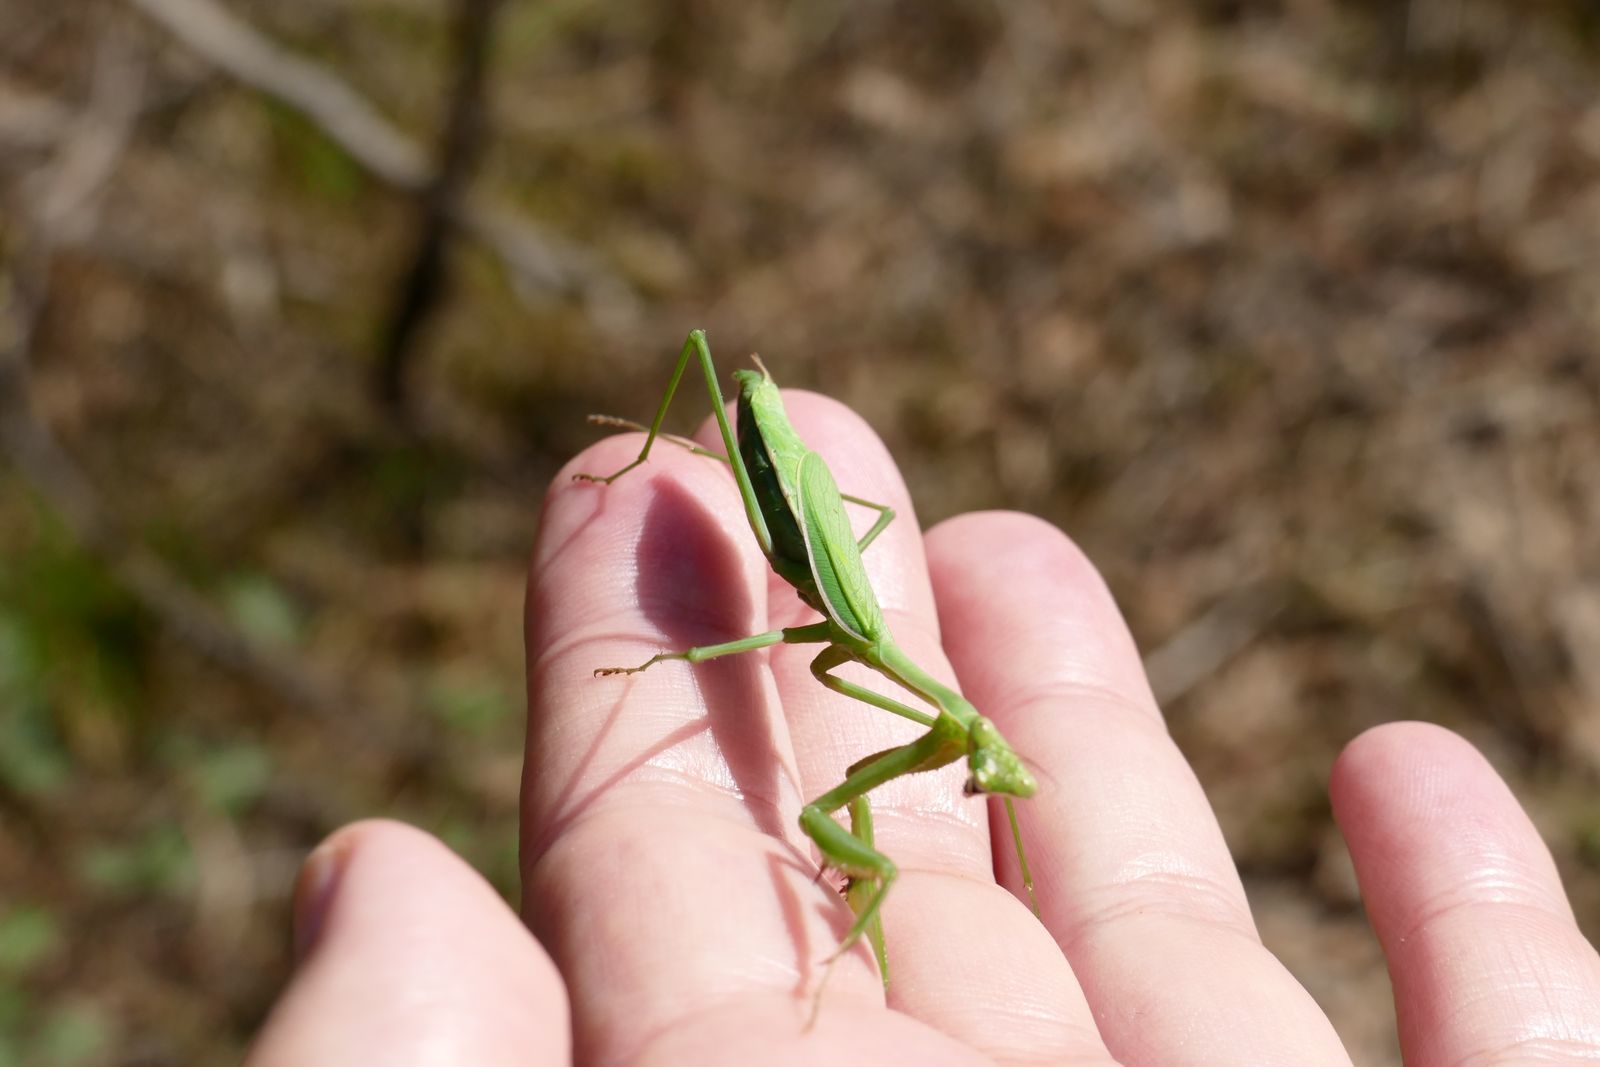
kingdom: Animalia
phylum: Arthropoda
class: Insecta
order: Mantodea
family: Mantidae
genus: Pseudomantis
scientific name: Pseudomantis albofimbriata
